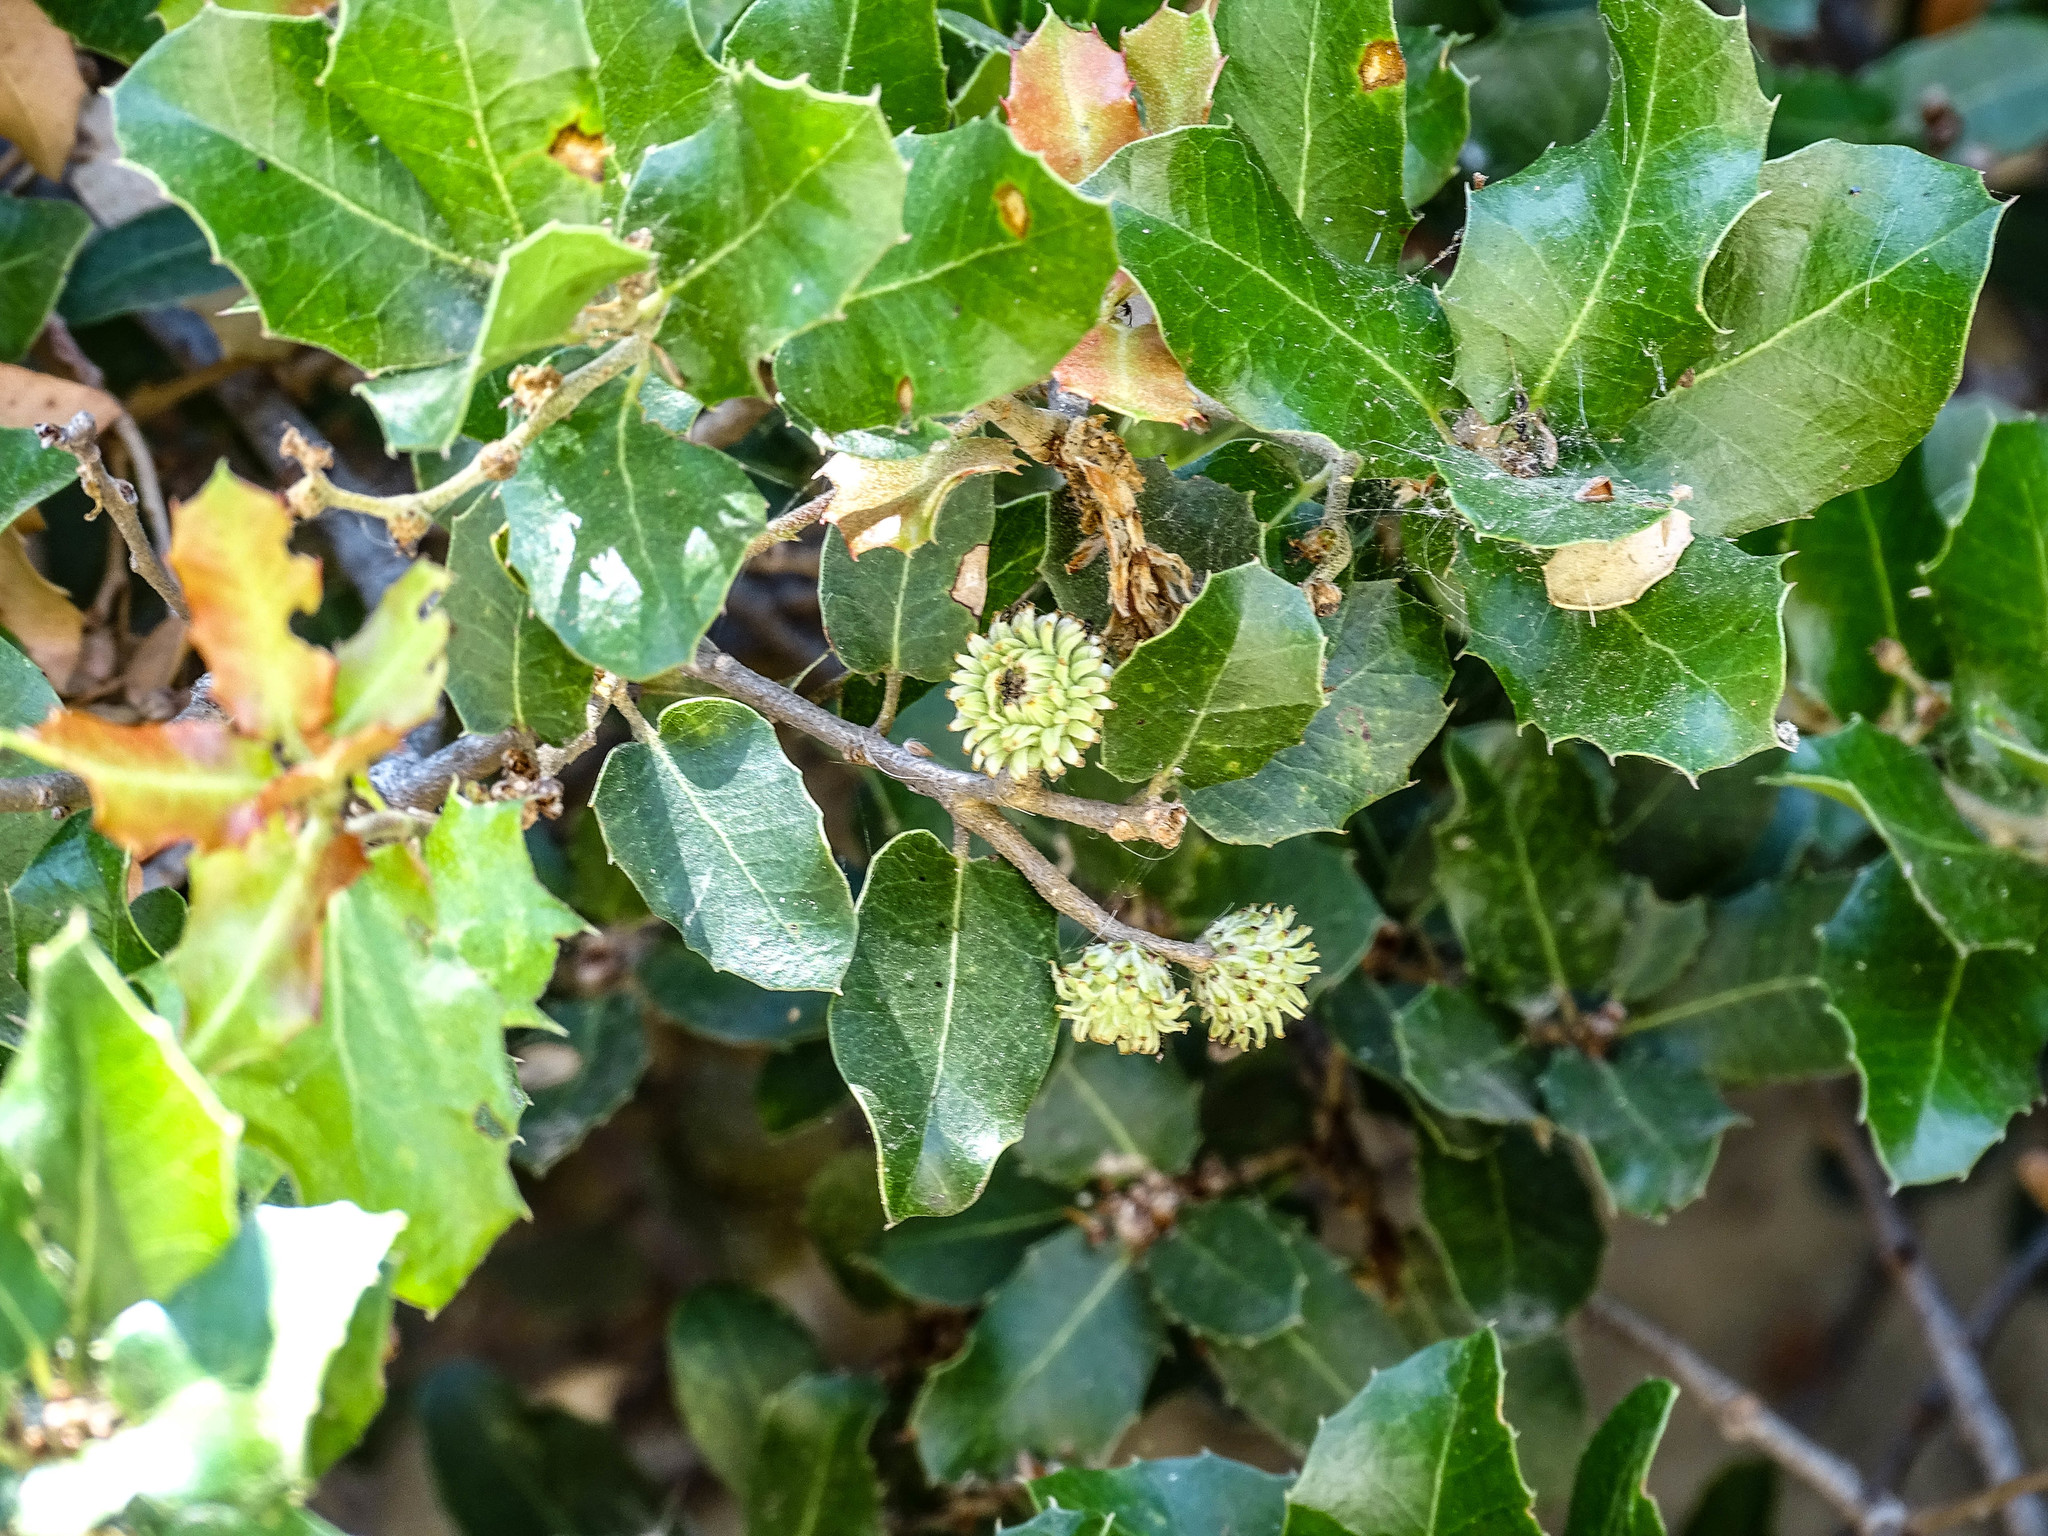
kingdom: Plantae
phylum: Tracheophyta
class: Magnoliopsida
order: Fagales
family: Fagaceae
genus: Quercus
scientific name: Quercus coccifera
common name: Kermes oak
